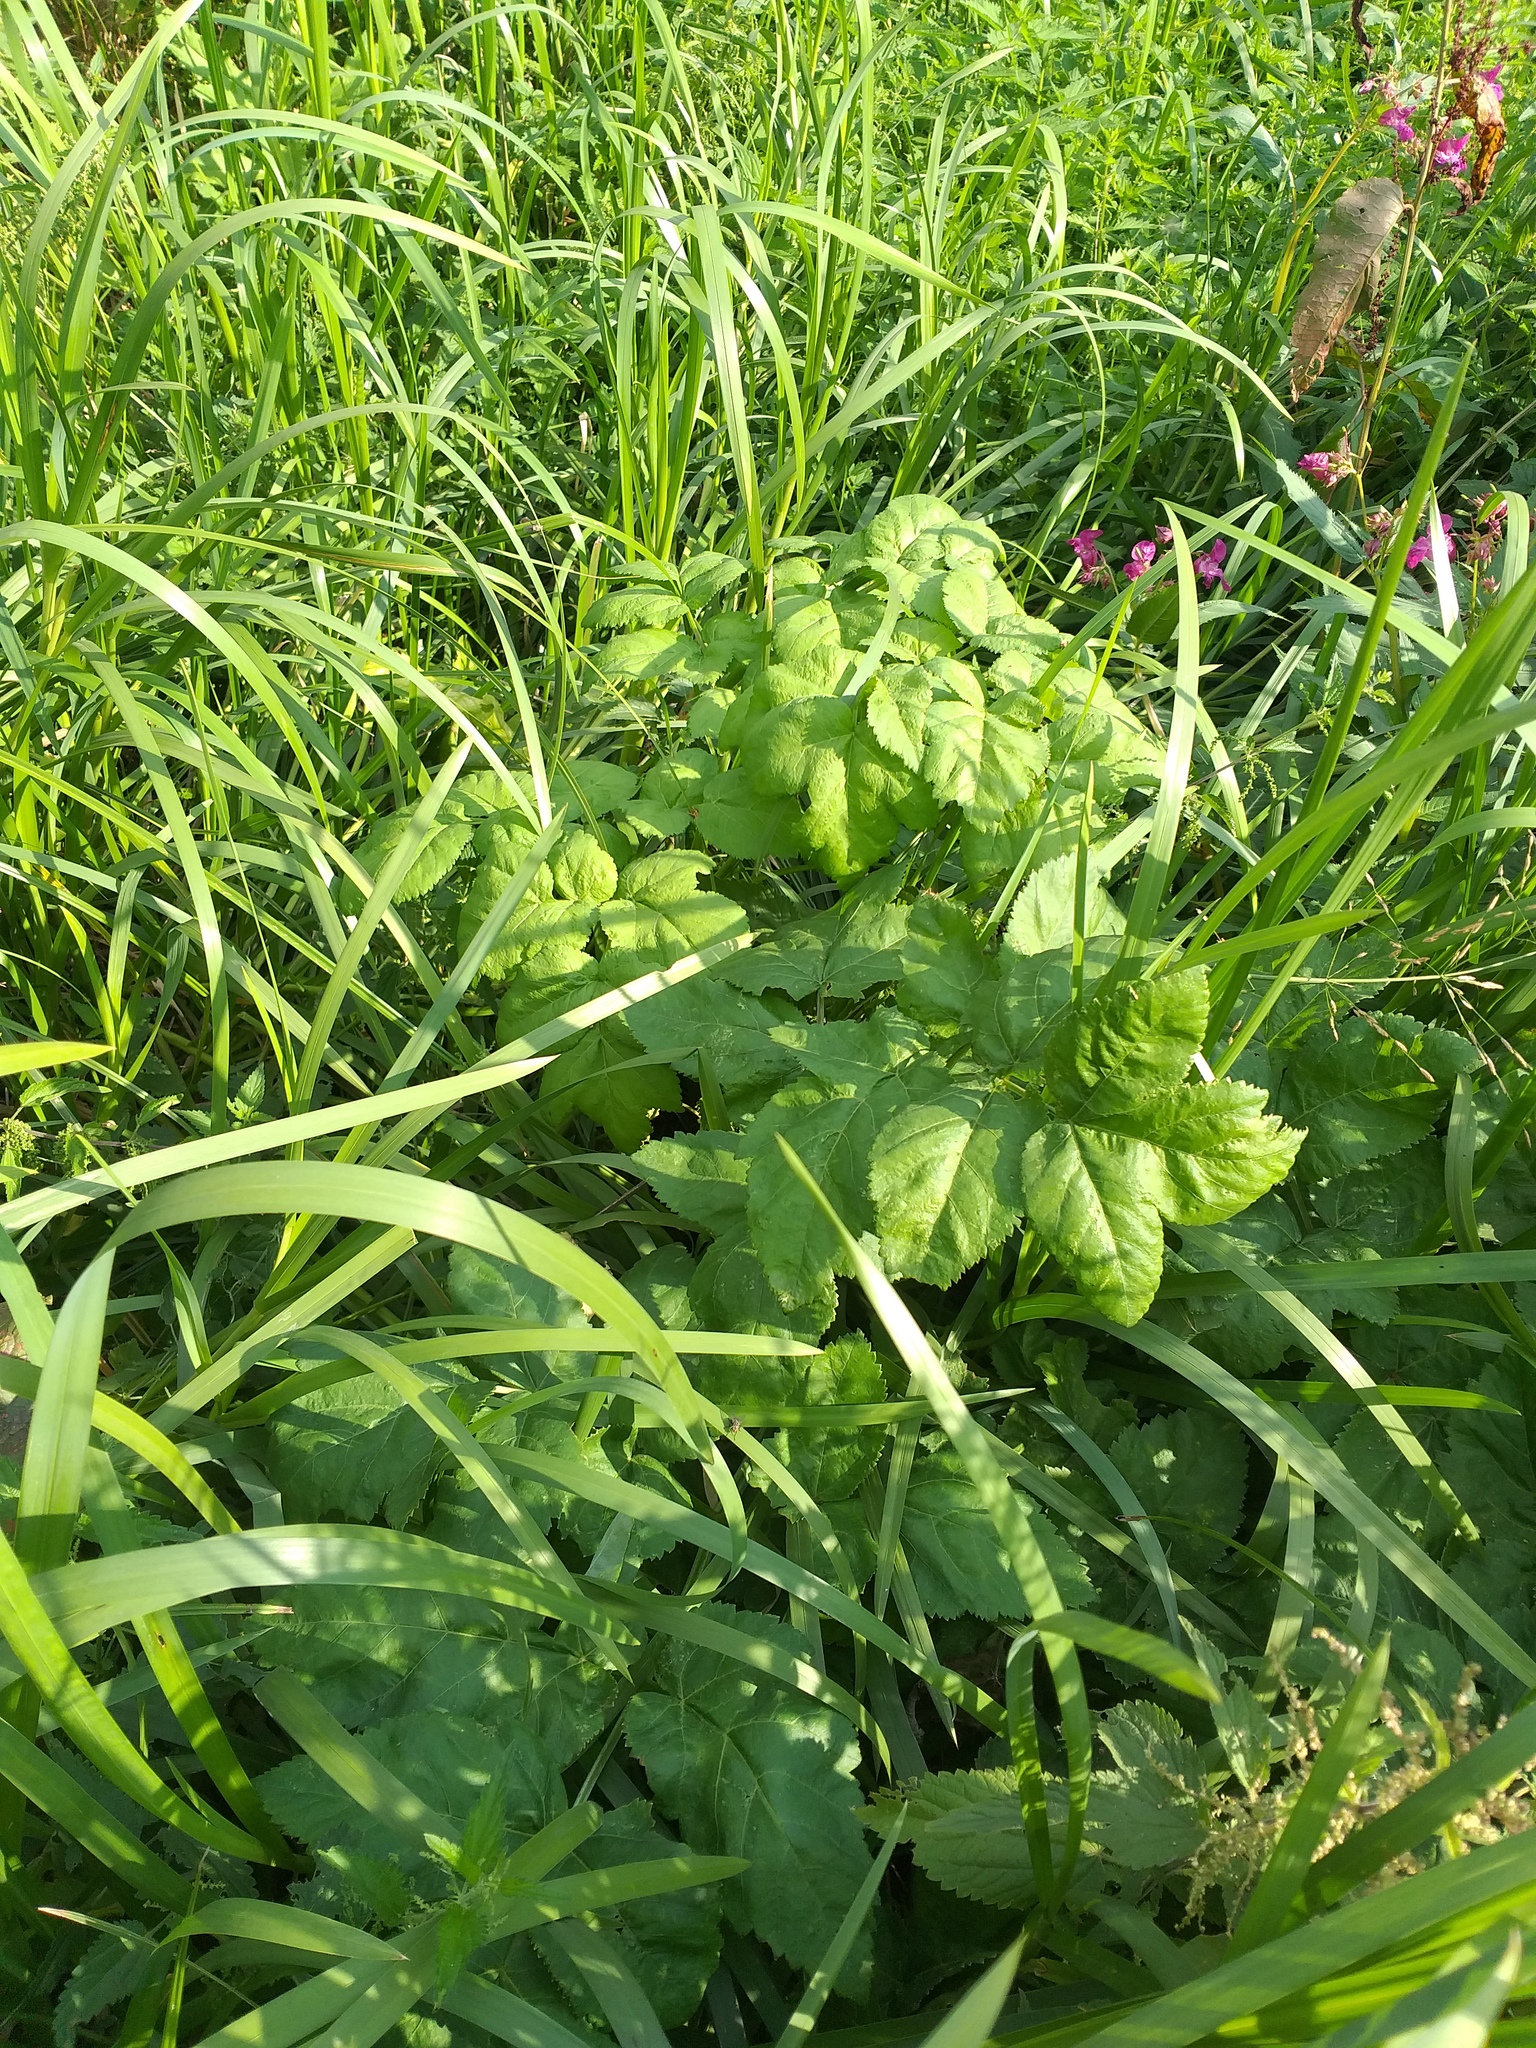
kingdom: Plantae
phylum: Tracheophyta
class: Magnoliopsida
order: Apiales
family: Apiaceae
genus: Angelica
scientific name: Angelica archangelica
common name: Garden angelica
